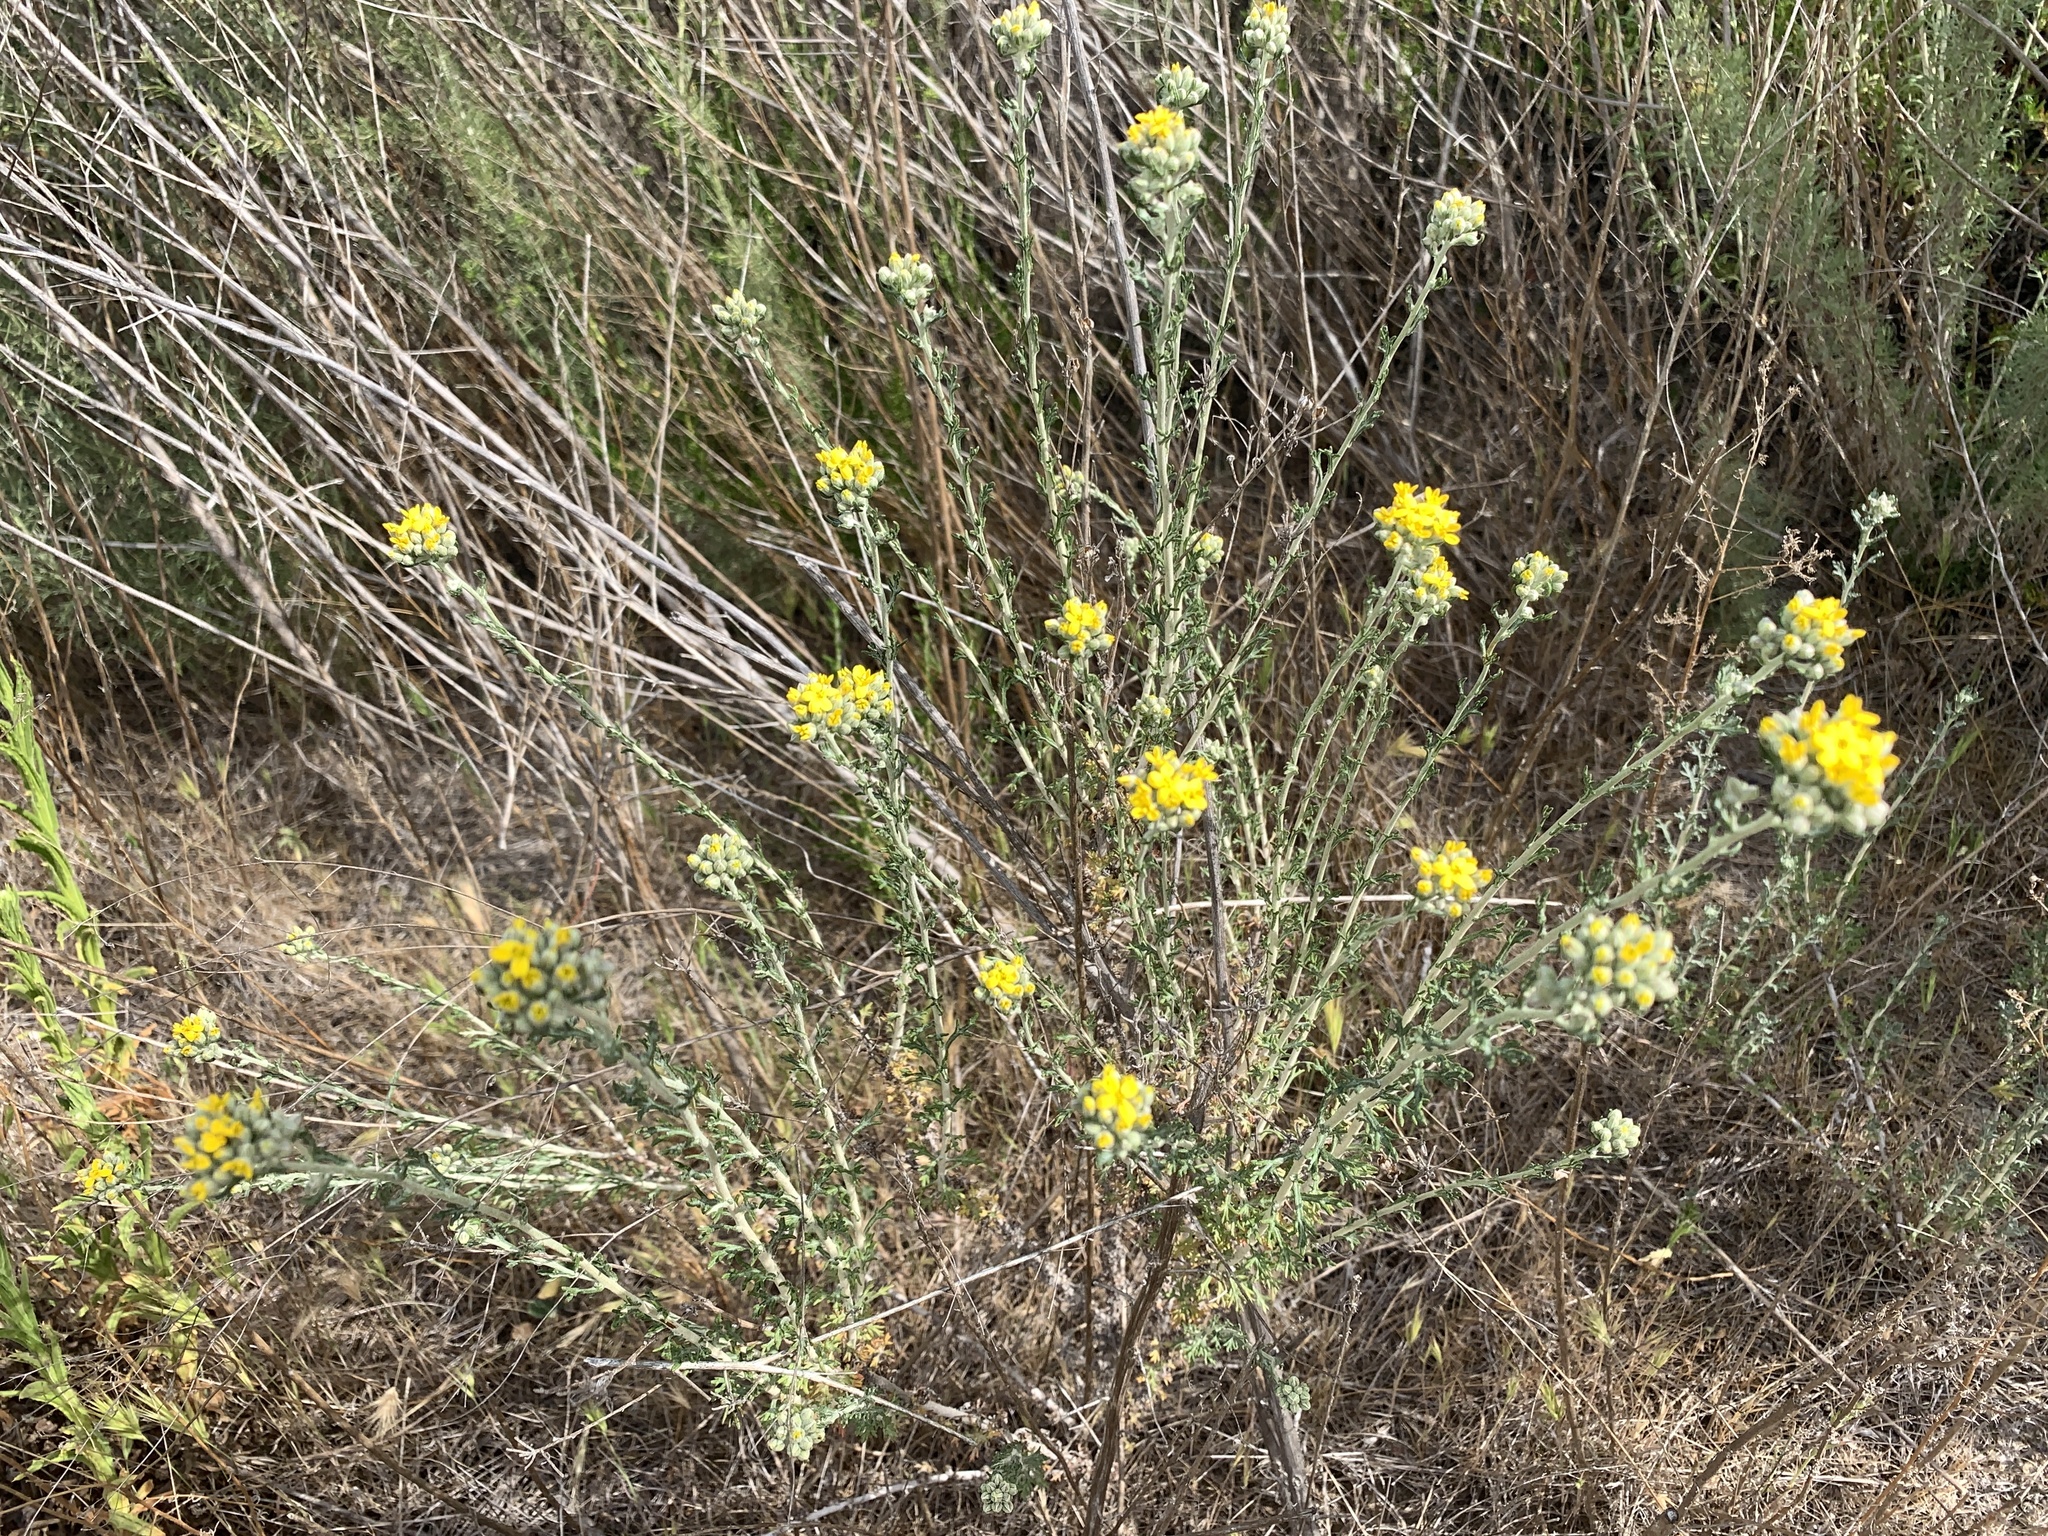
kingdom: Plantae
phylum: Tracheophyta
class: Magnoliopsida
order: Asterales
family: Asteraceae
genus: Eriophyllum
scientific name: Eriophyllum confertiflorum
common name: Golden-yarrow
